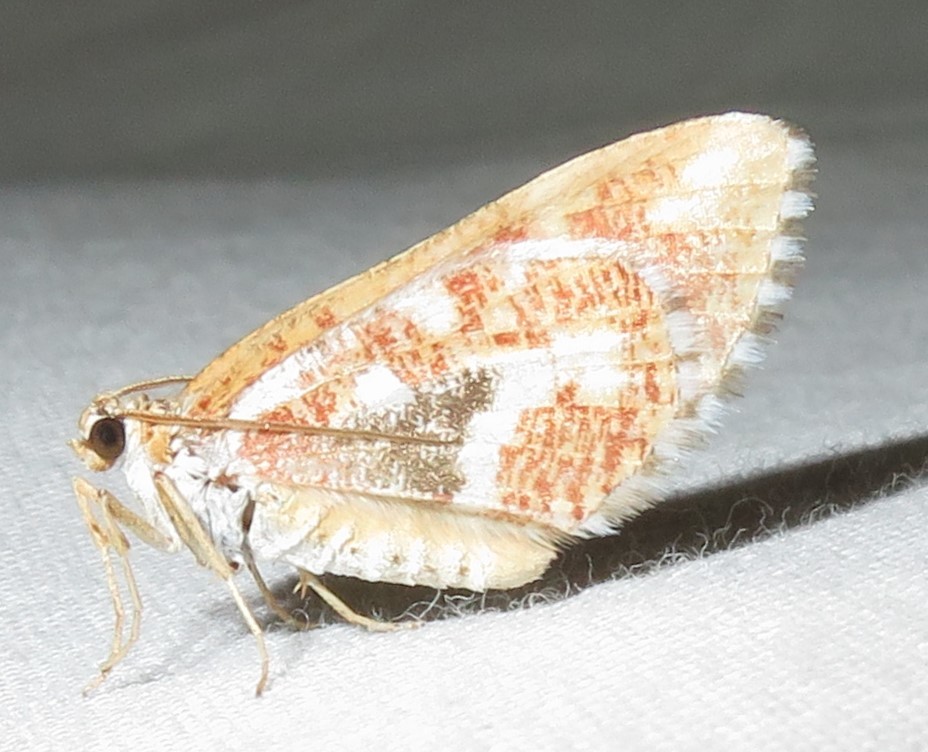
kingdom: Animalia
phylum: Arthropoda
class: Insecta
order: Lepidoptera
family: Geometridae
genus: Stamnodes
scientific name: Stamnodes formosata
